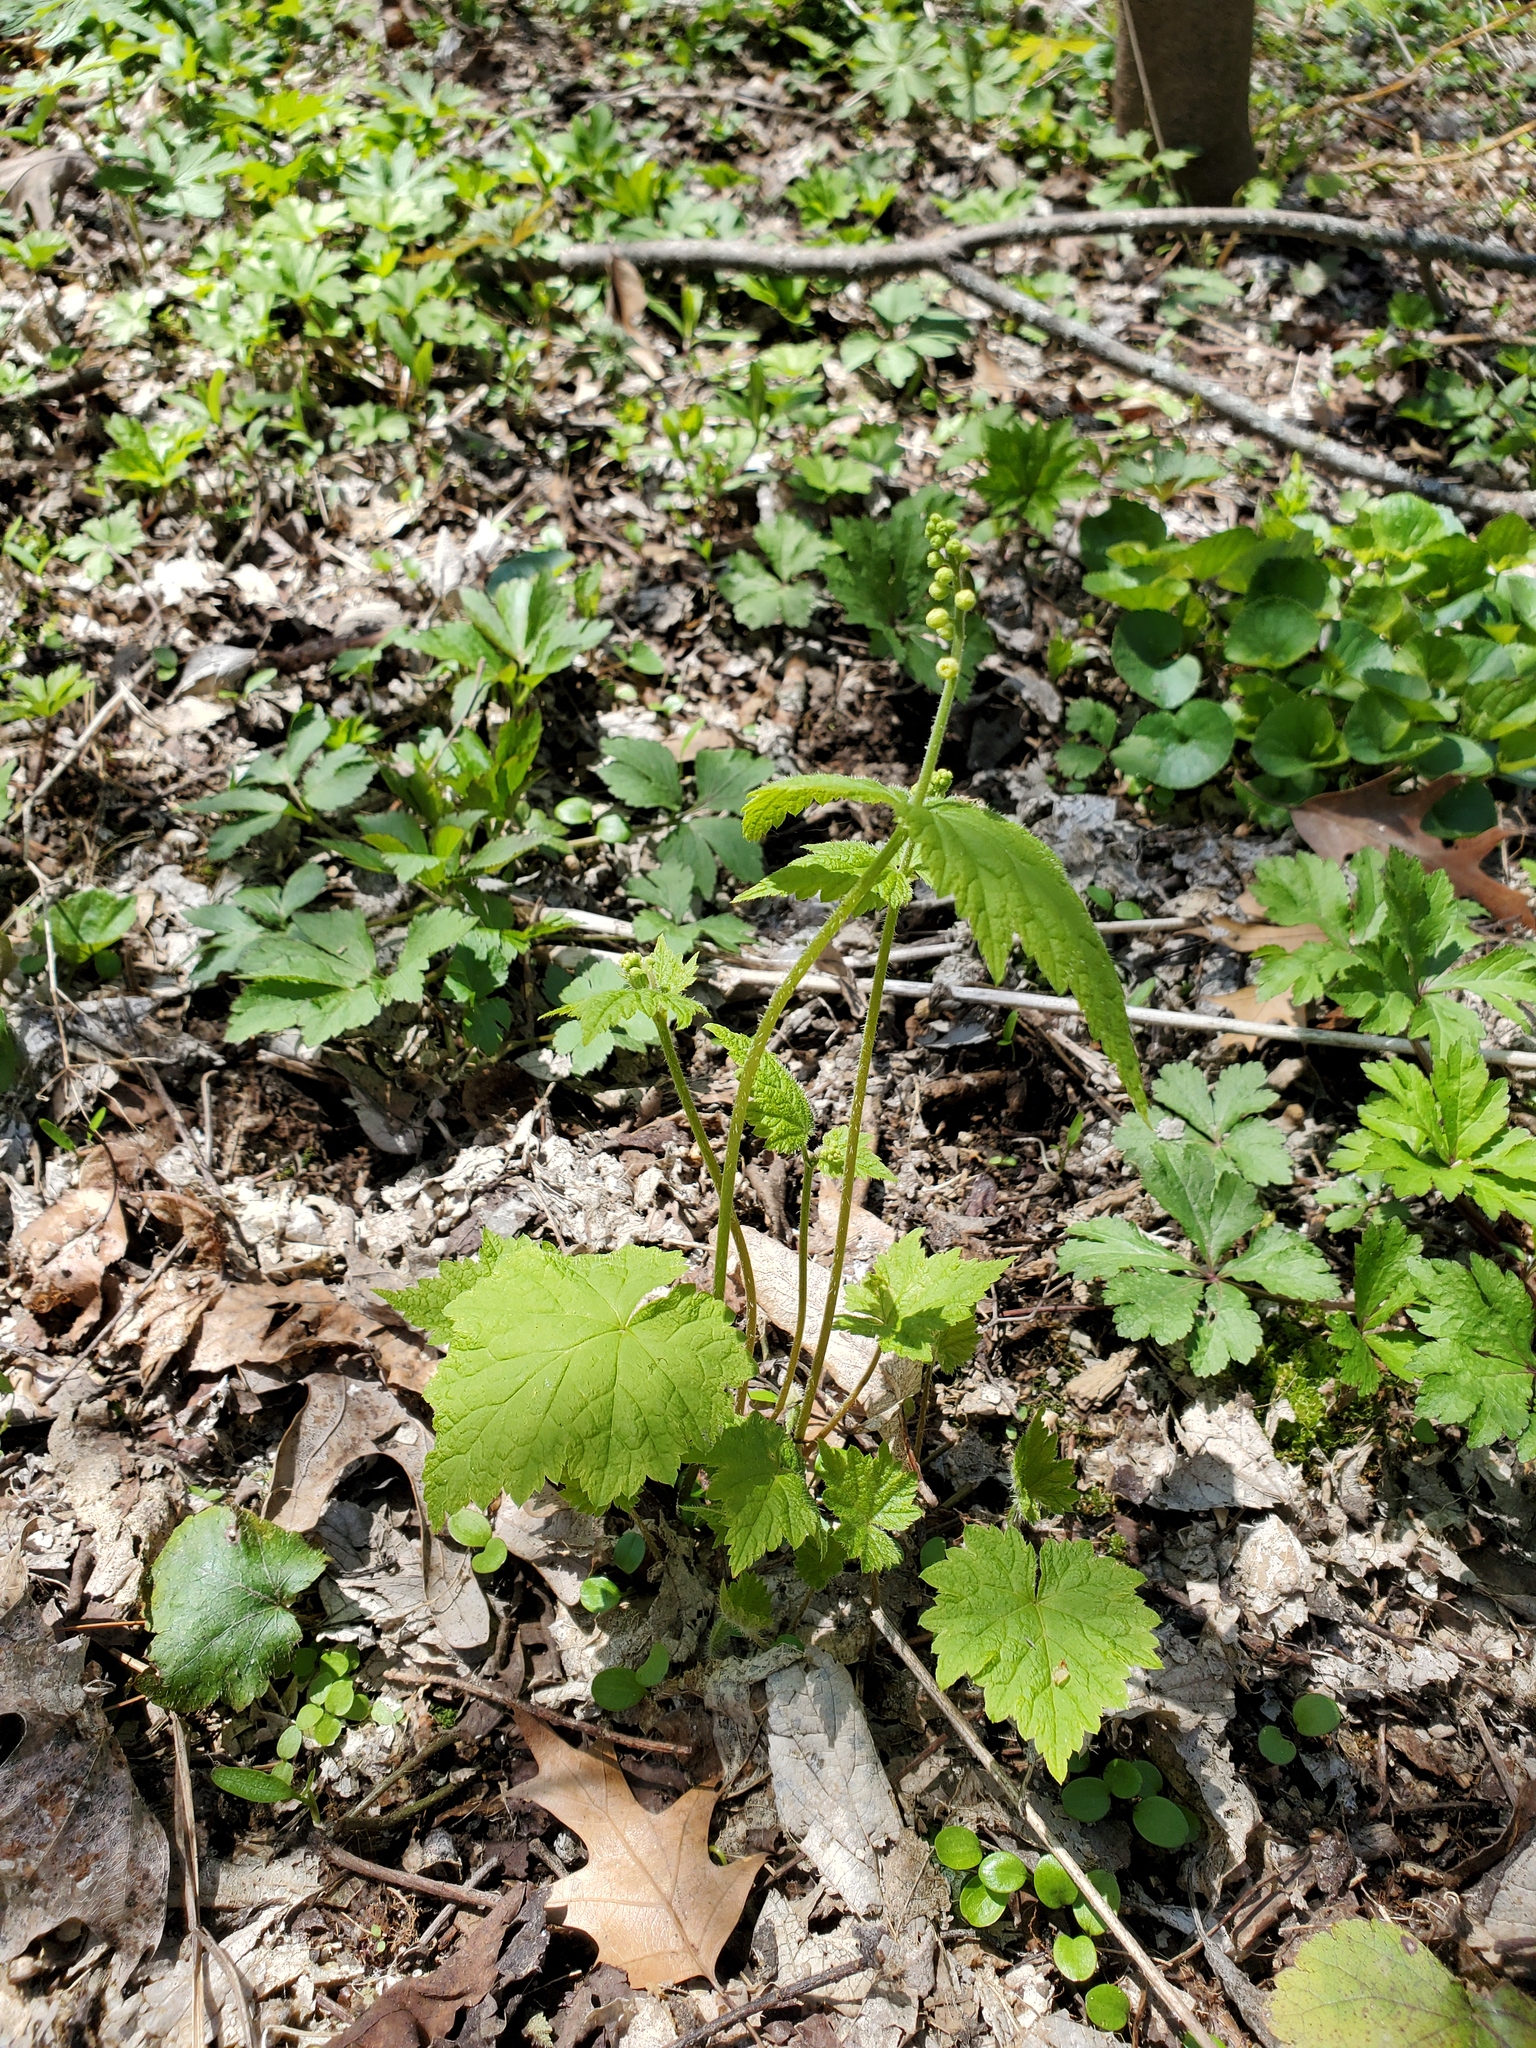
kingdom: Plantae
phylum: Tracheophyta
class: Magnoliopsida
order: Saxifragales
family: Saxifragaceae
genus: Mitella
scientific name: Mitella diphylla
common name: Coolwort
